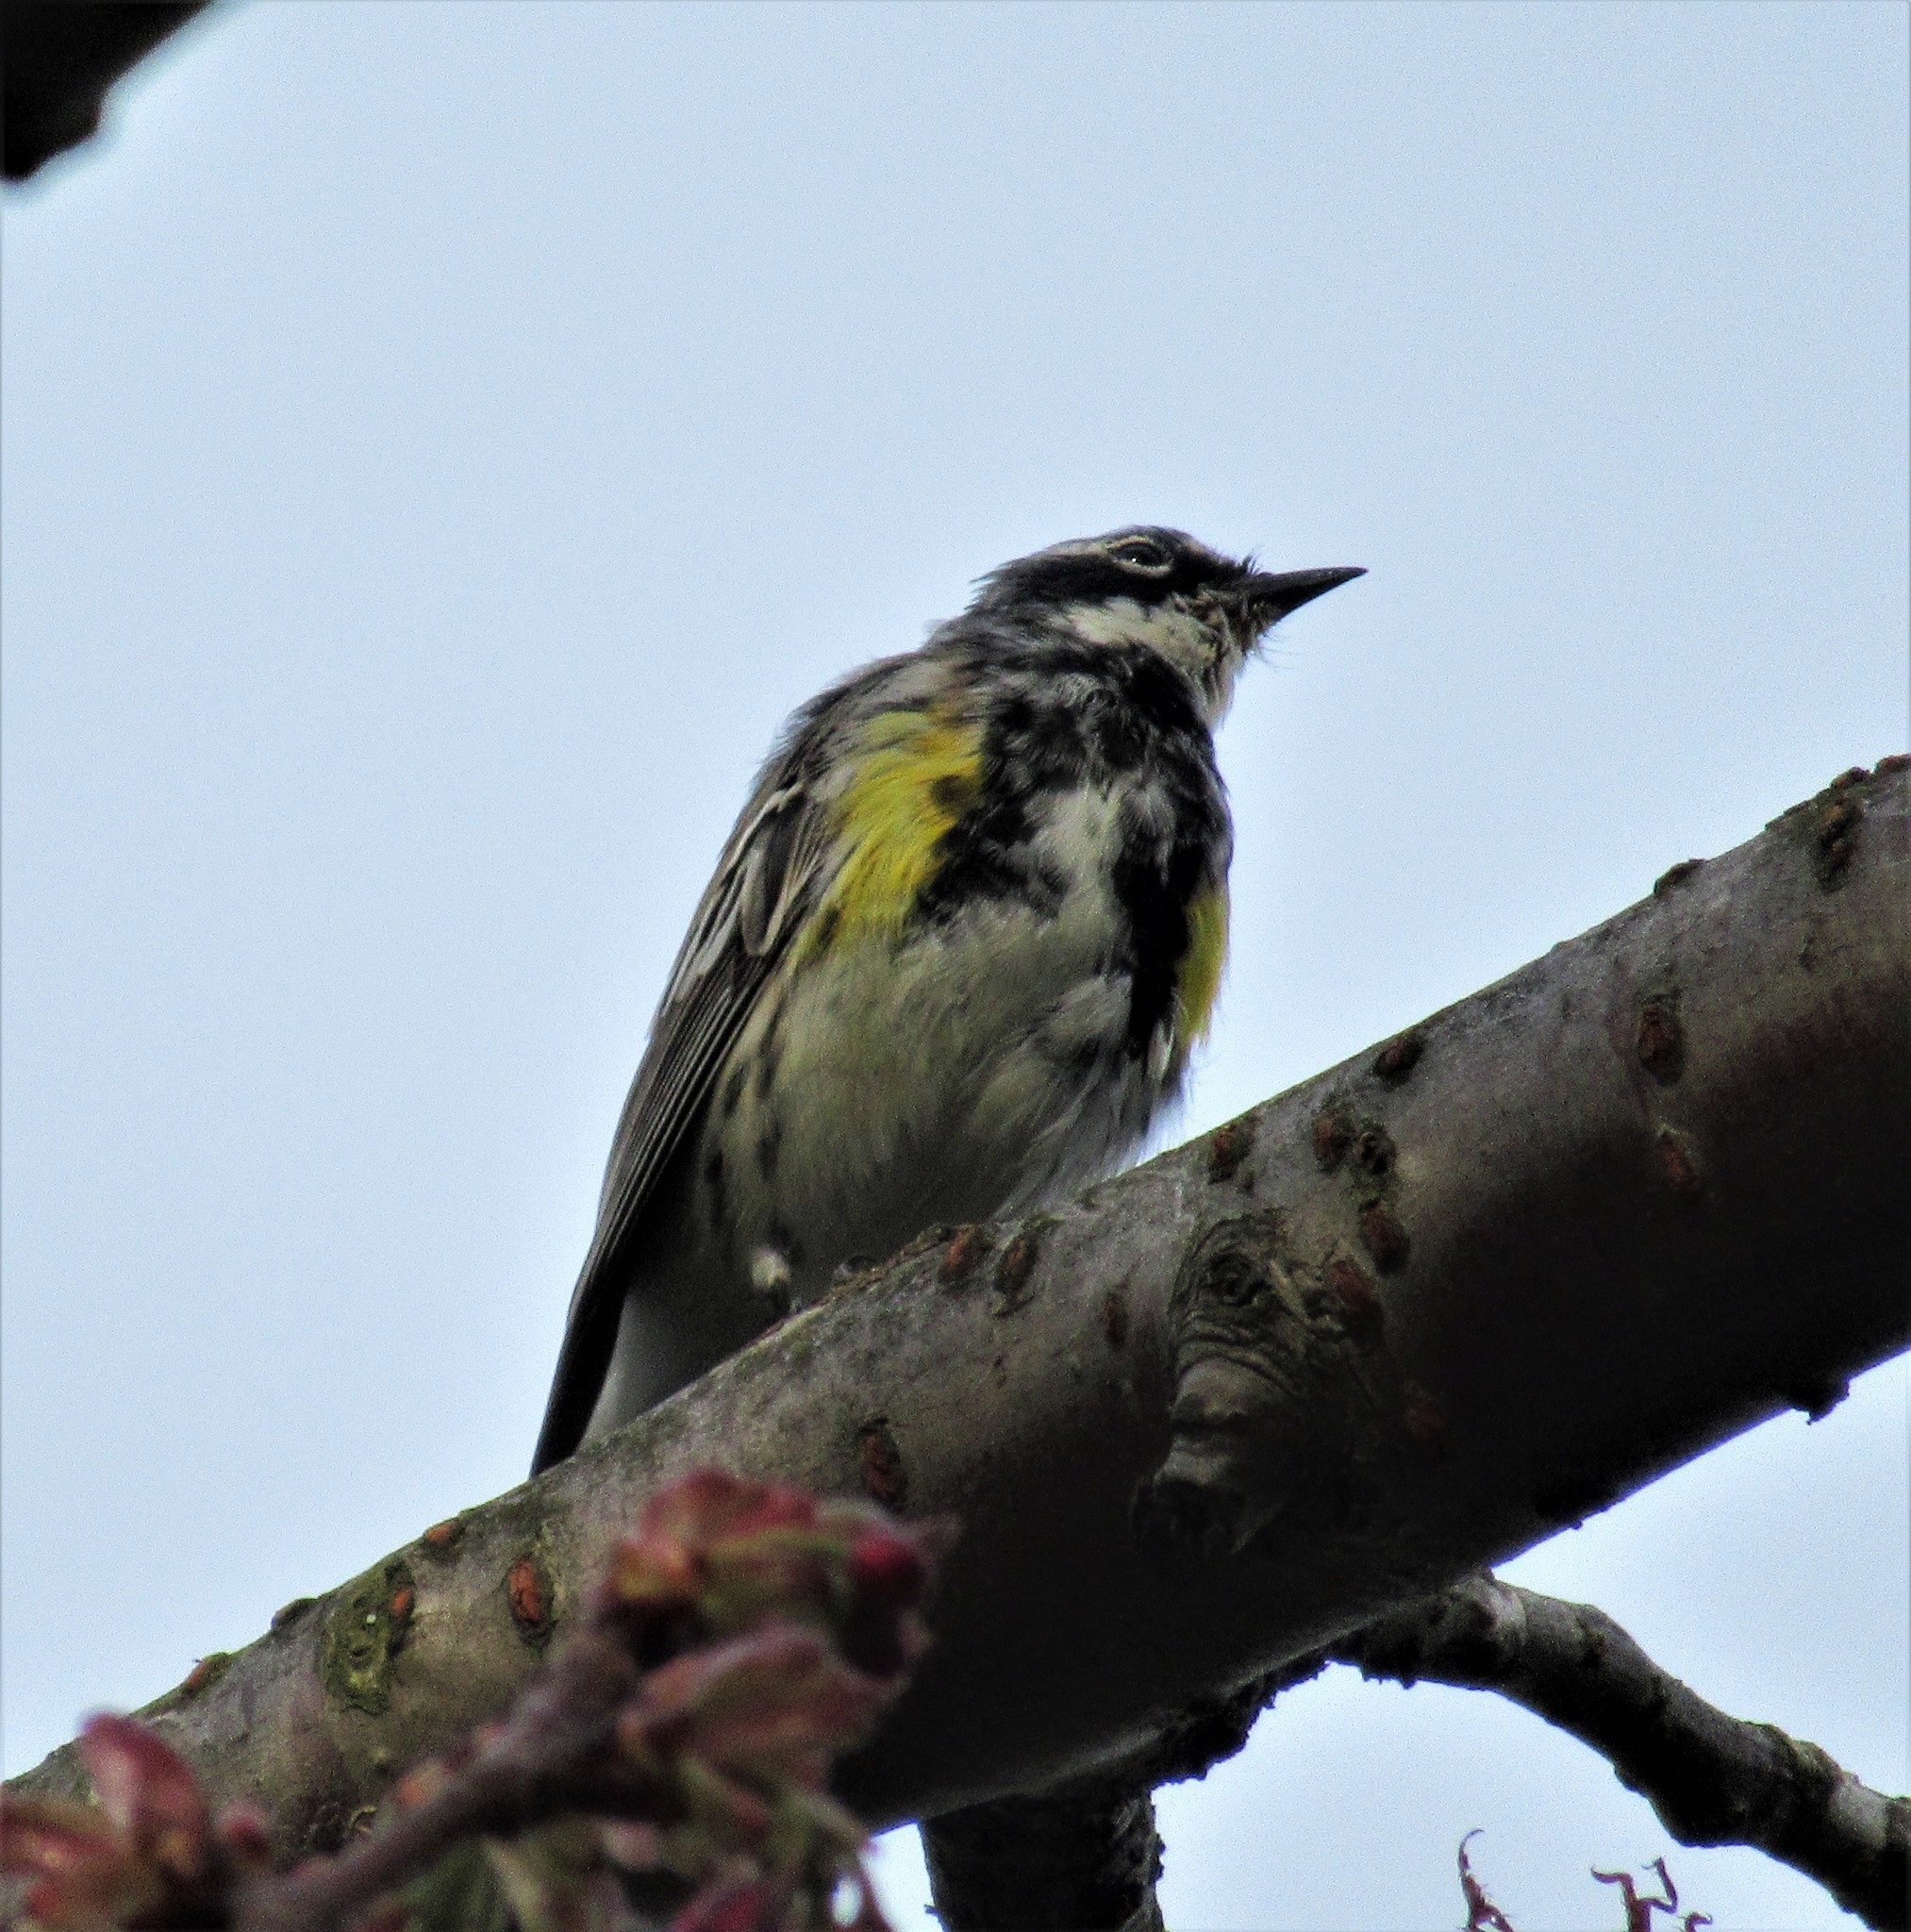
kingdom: Animalia
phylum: Chordata
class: Aves
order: Passeriformes
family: Parulidae
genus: Setophaga
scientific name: Setophaga coronata
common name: Myrtle warbler
